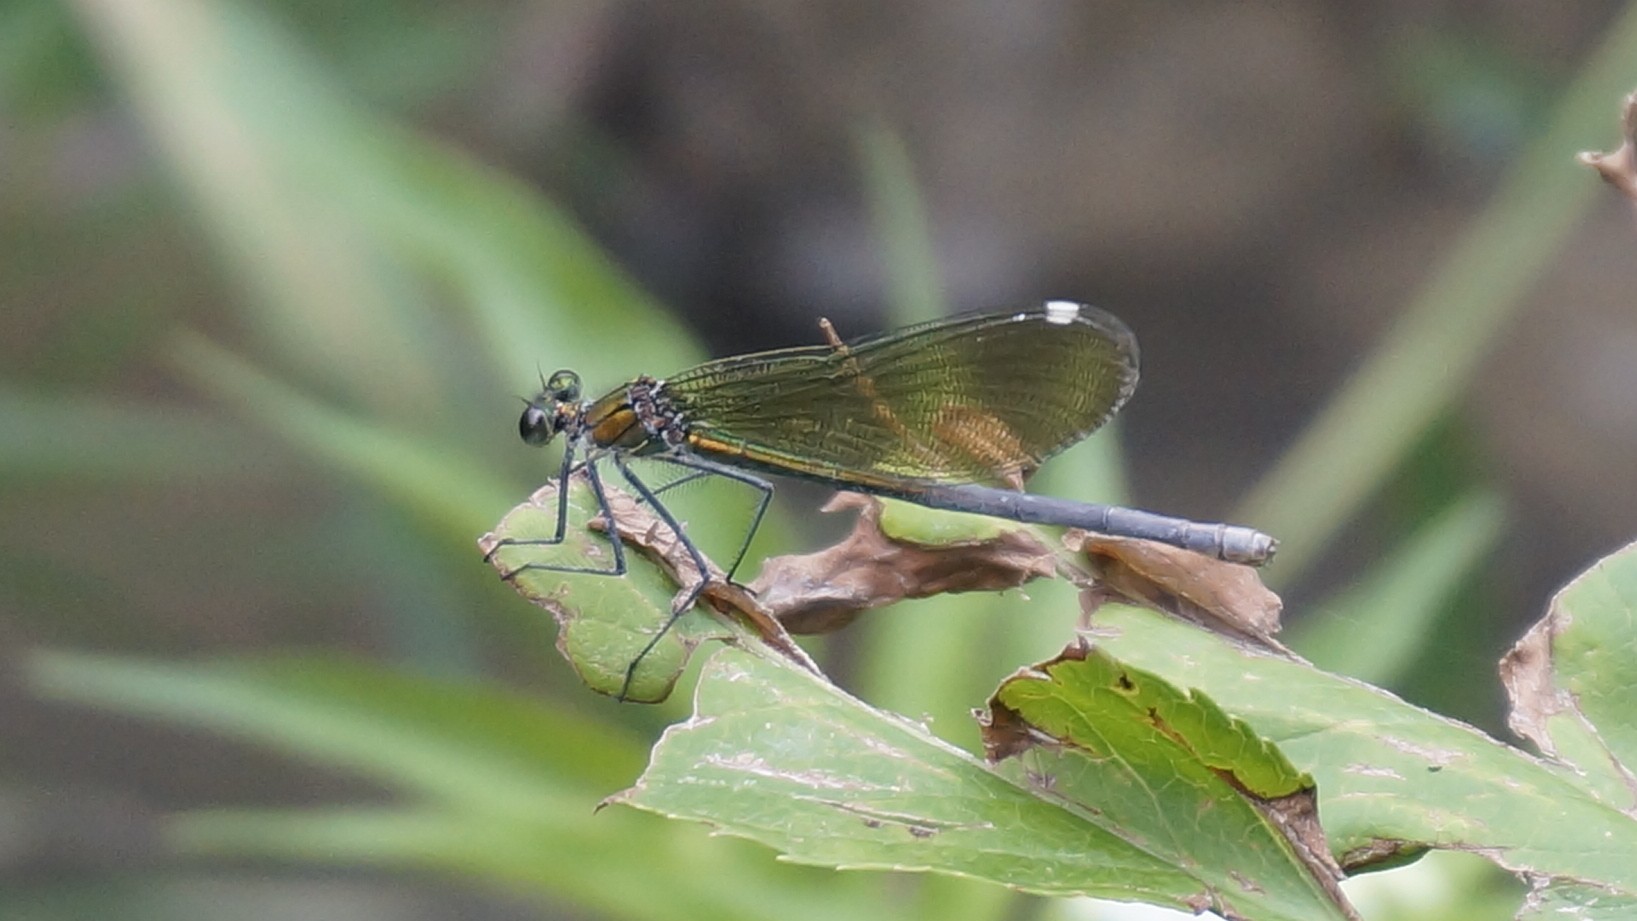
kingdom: Animalia
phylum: Arthropoda
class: Insecta
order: Odonata
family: Calopterygidae
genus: Calopteryx
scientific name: Calopteryx splendens
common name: Banded demoiselle
